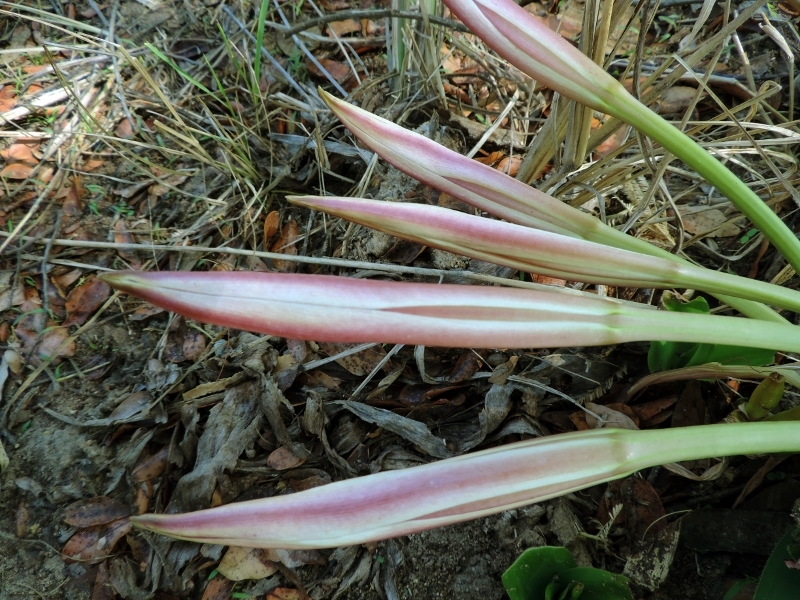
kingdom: Plantae
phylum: Tracheophyta
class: Liliopsida
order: Asparagales
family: Amaryllidaceae
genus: Crinum
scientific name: Crinum crassicaule
